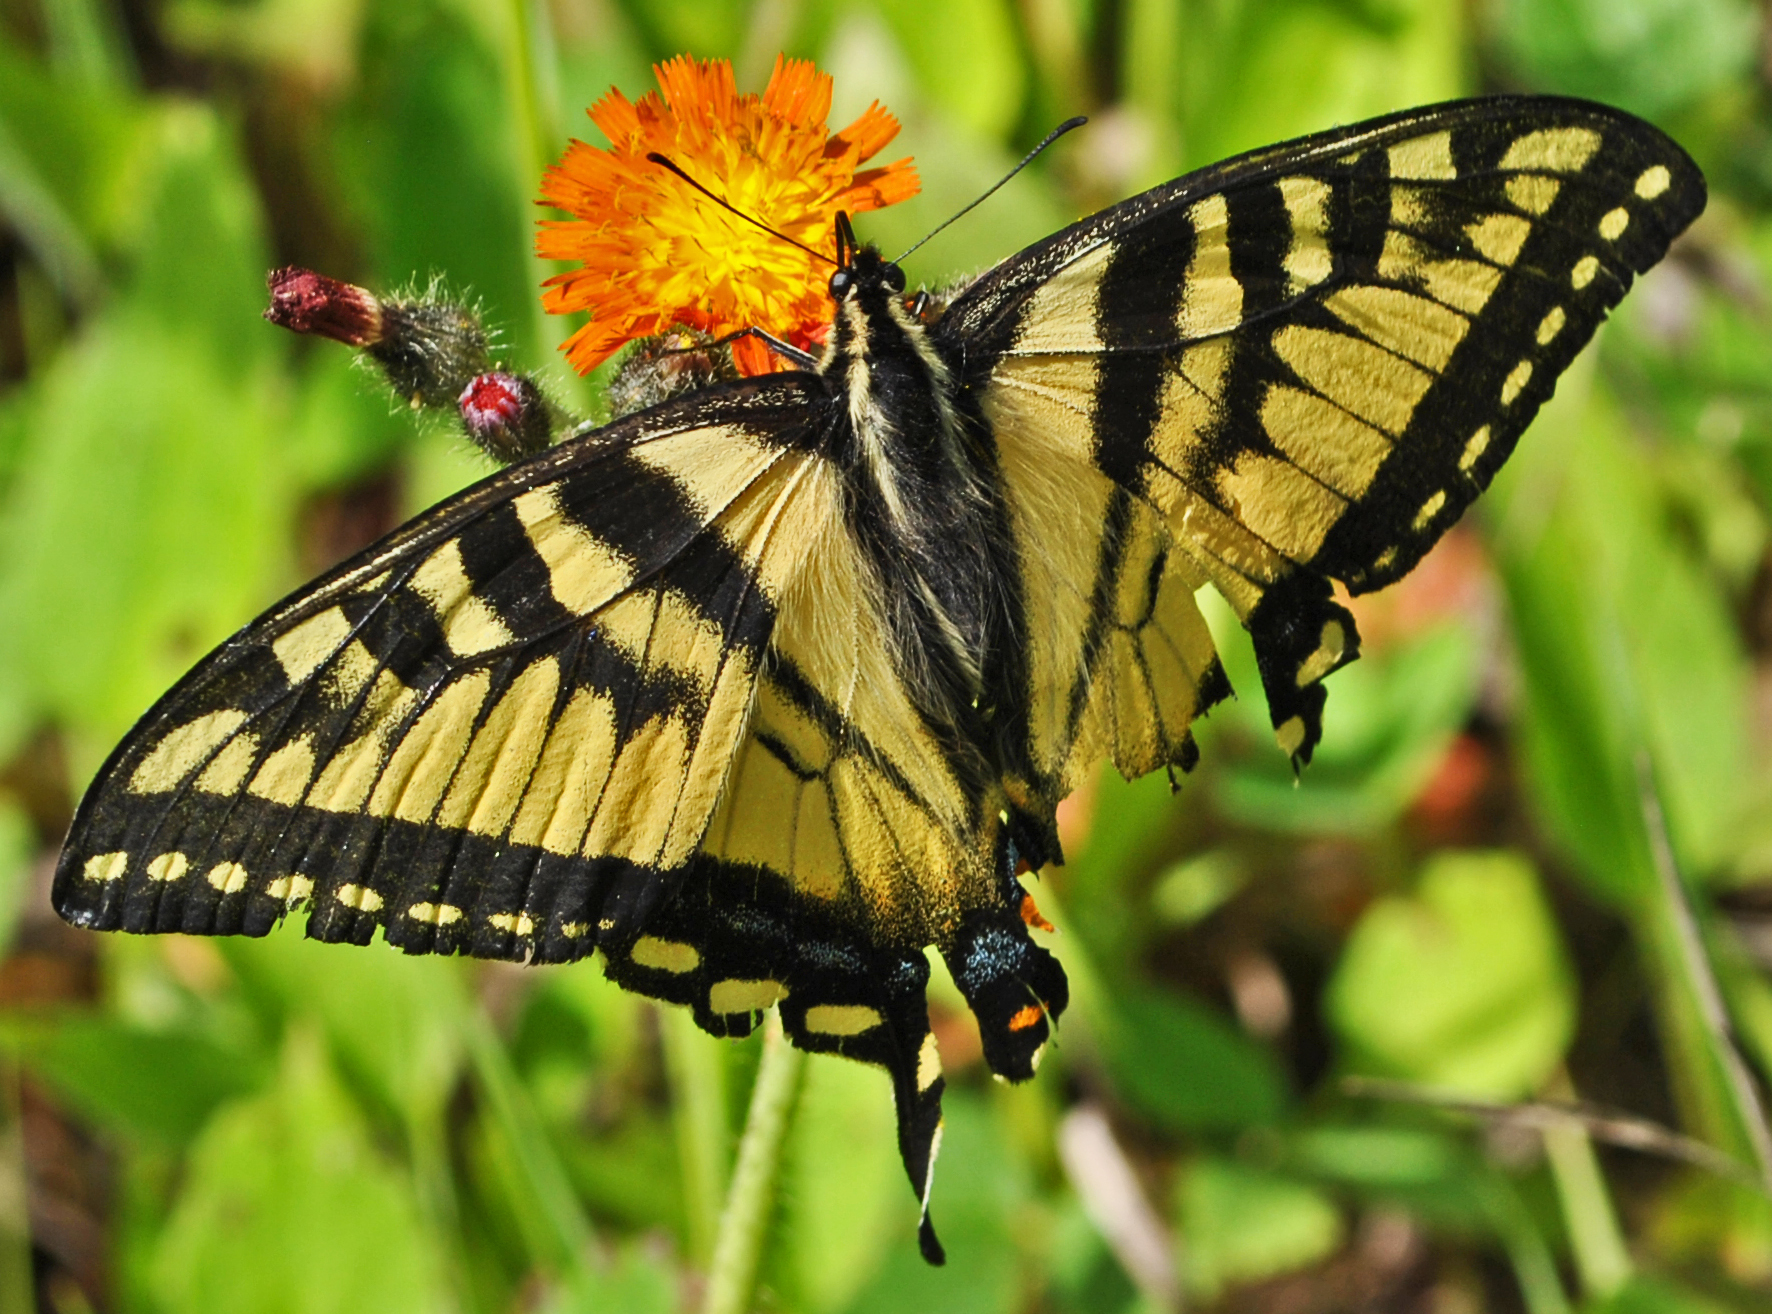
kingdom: Animalia
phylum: Arthropoda
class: Insecta
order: Lepidoptera
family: Papilionidae
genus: Papilio
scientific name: Papilio canadensis
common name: Canadian tiger swallowtail
